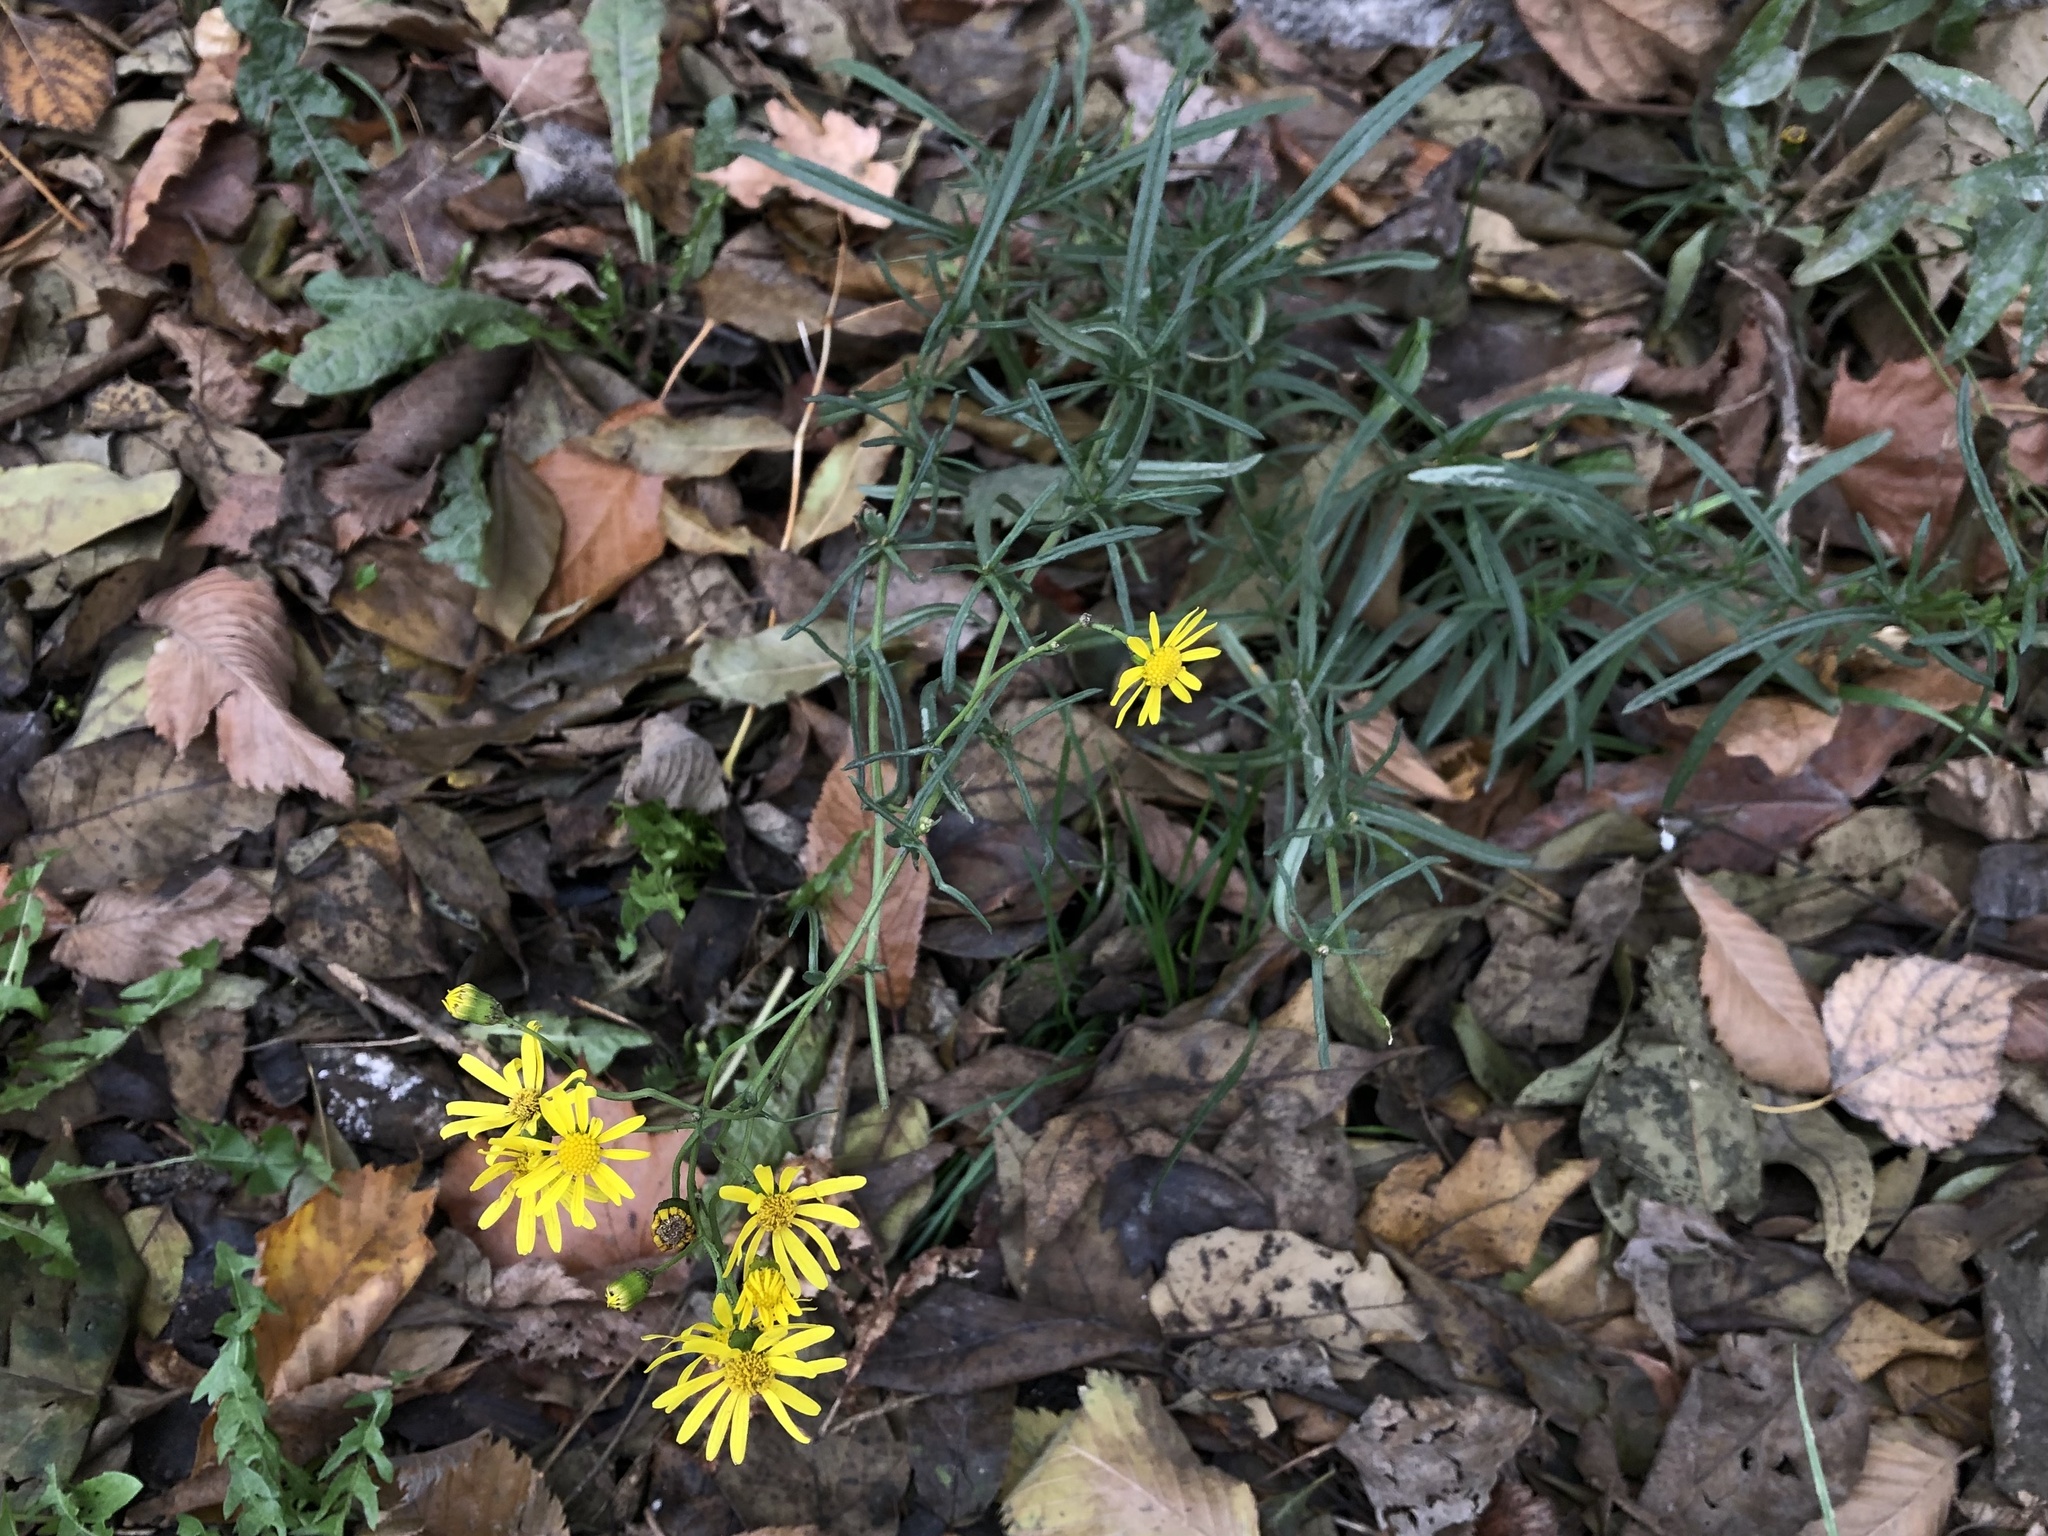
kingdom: Plantae
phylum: Tracheophyta
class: Magnoliopsida
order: Asterales
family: Asteraceae
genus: Senecio
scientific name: Senecio inaequidens
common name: Narrow-leaved ragwort
